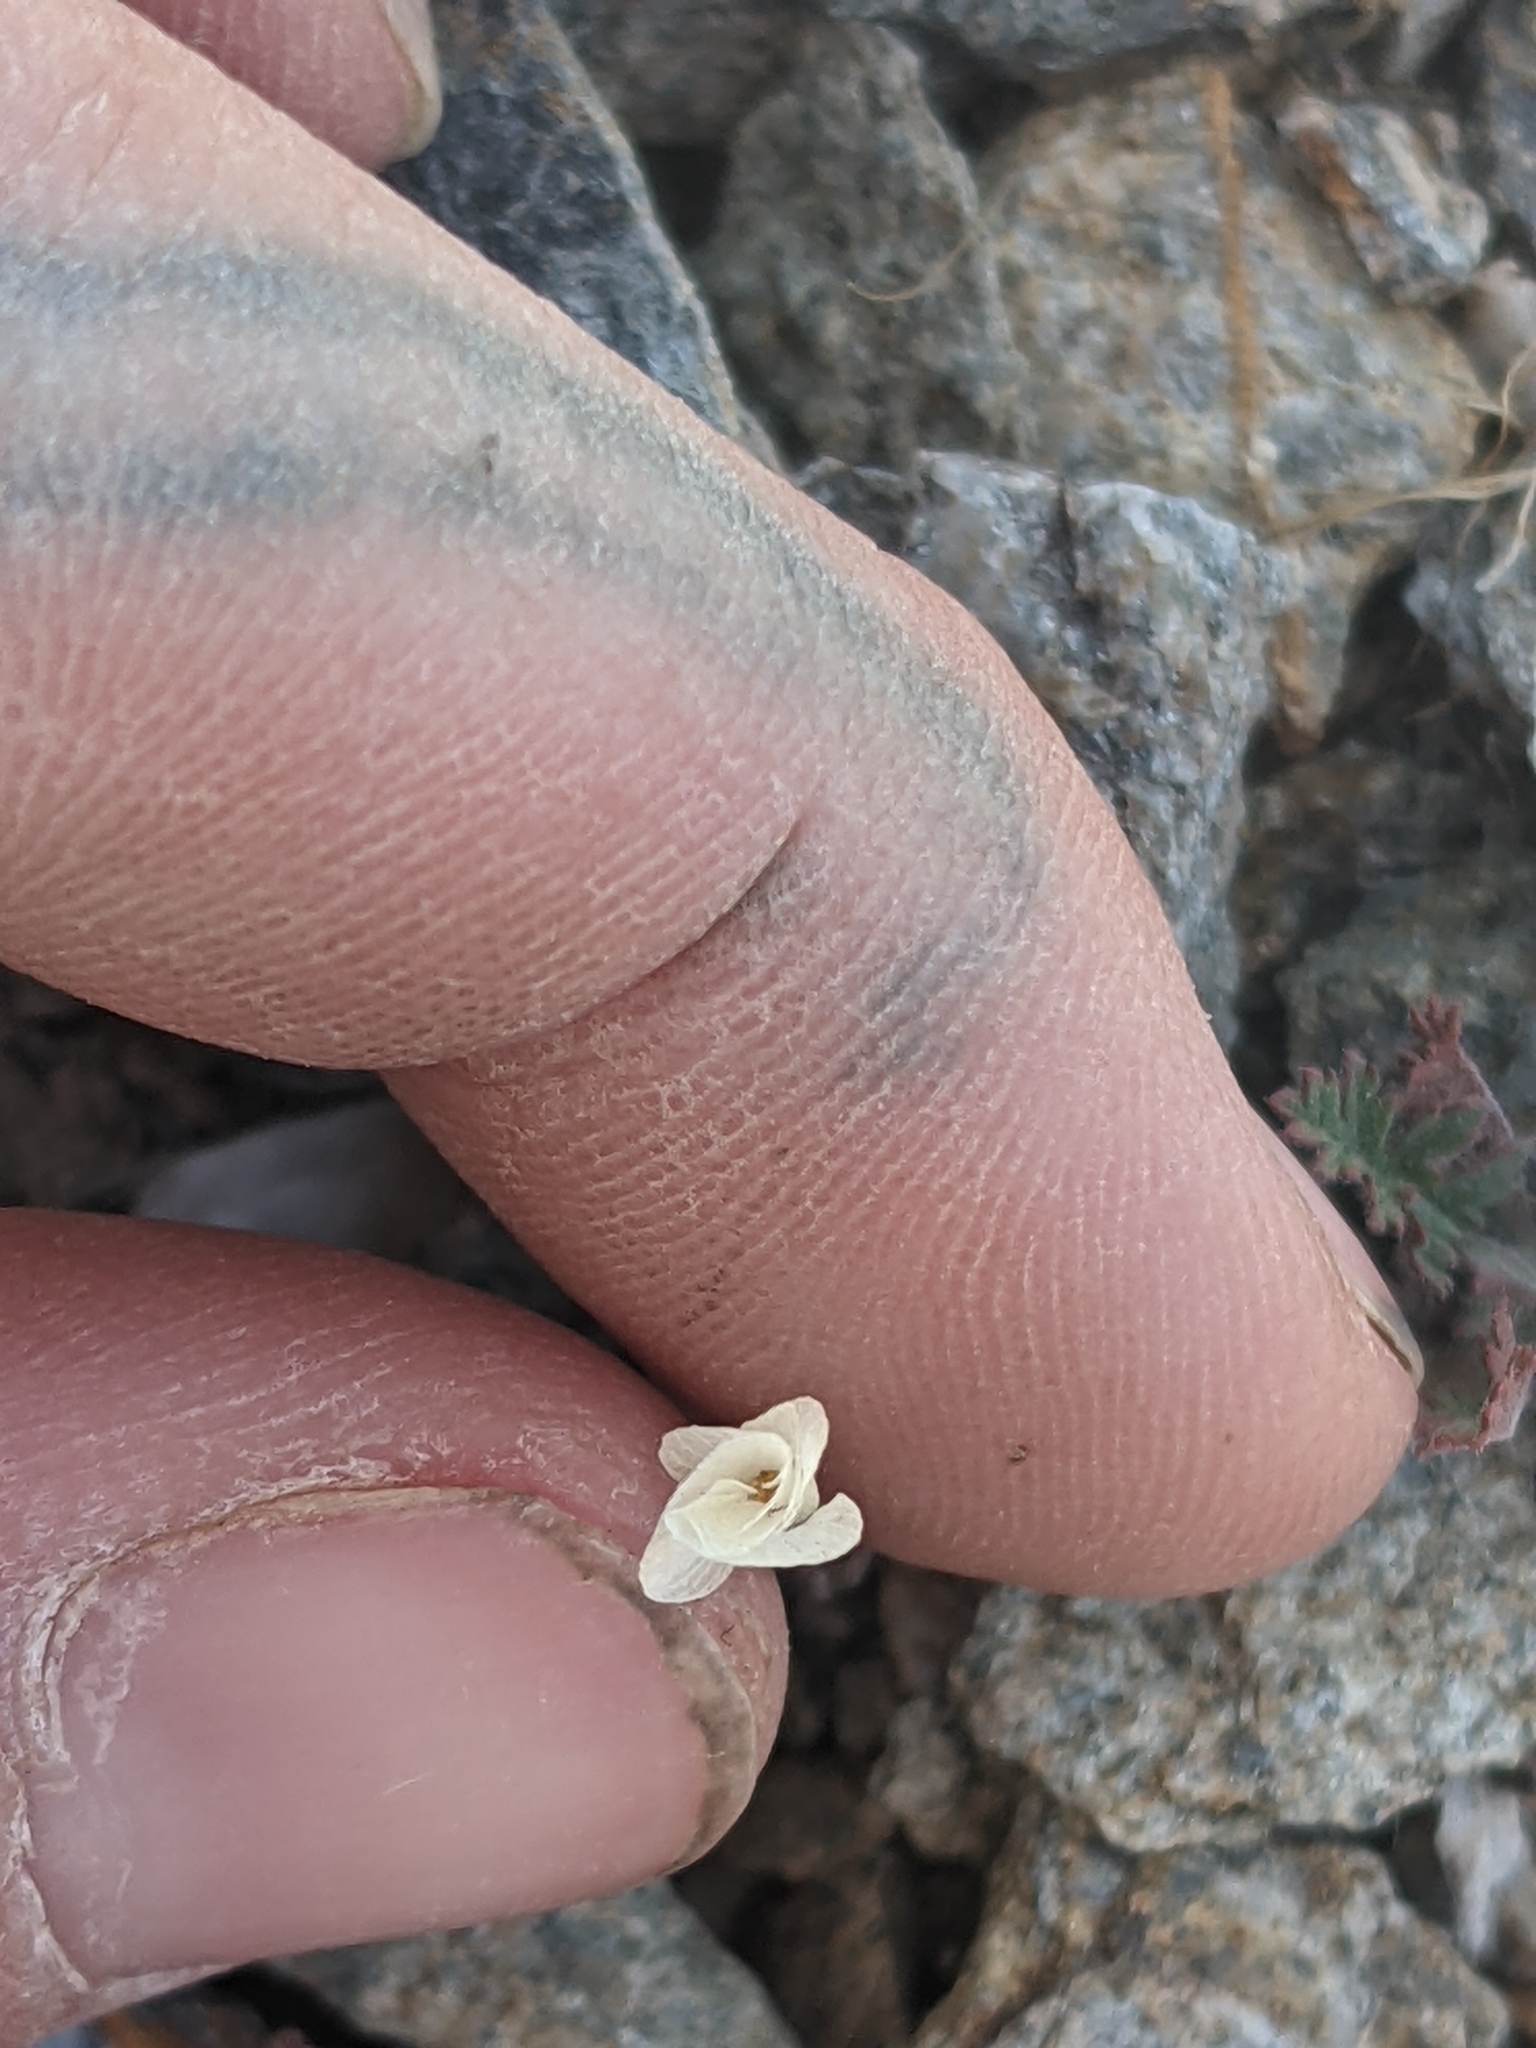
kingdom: Plantae
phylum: Tracheophyta
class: Magnoliopsida
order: Ericales
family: Polemoniaceae
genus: Linanthus
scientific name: Linanthus dichotomus
